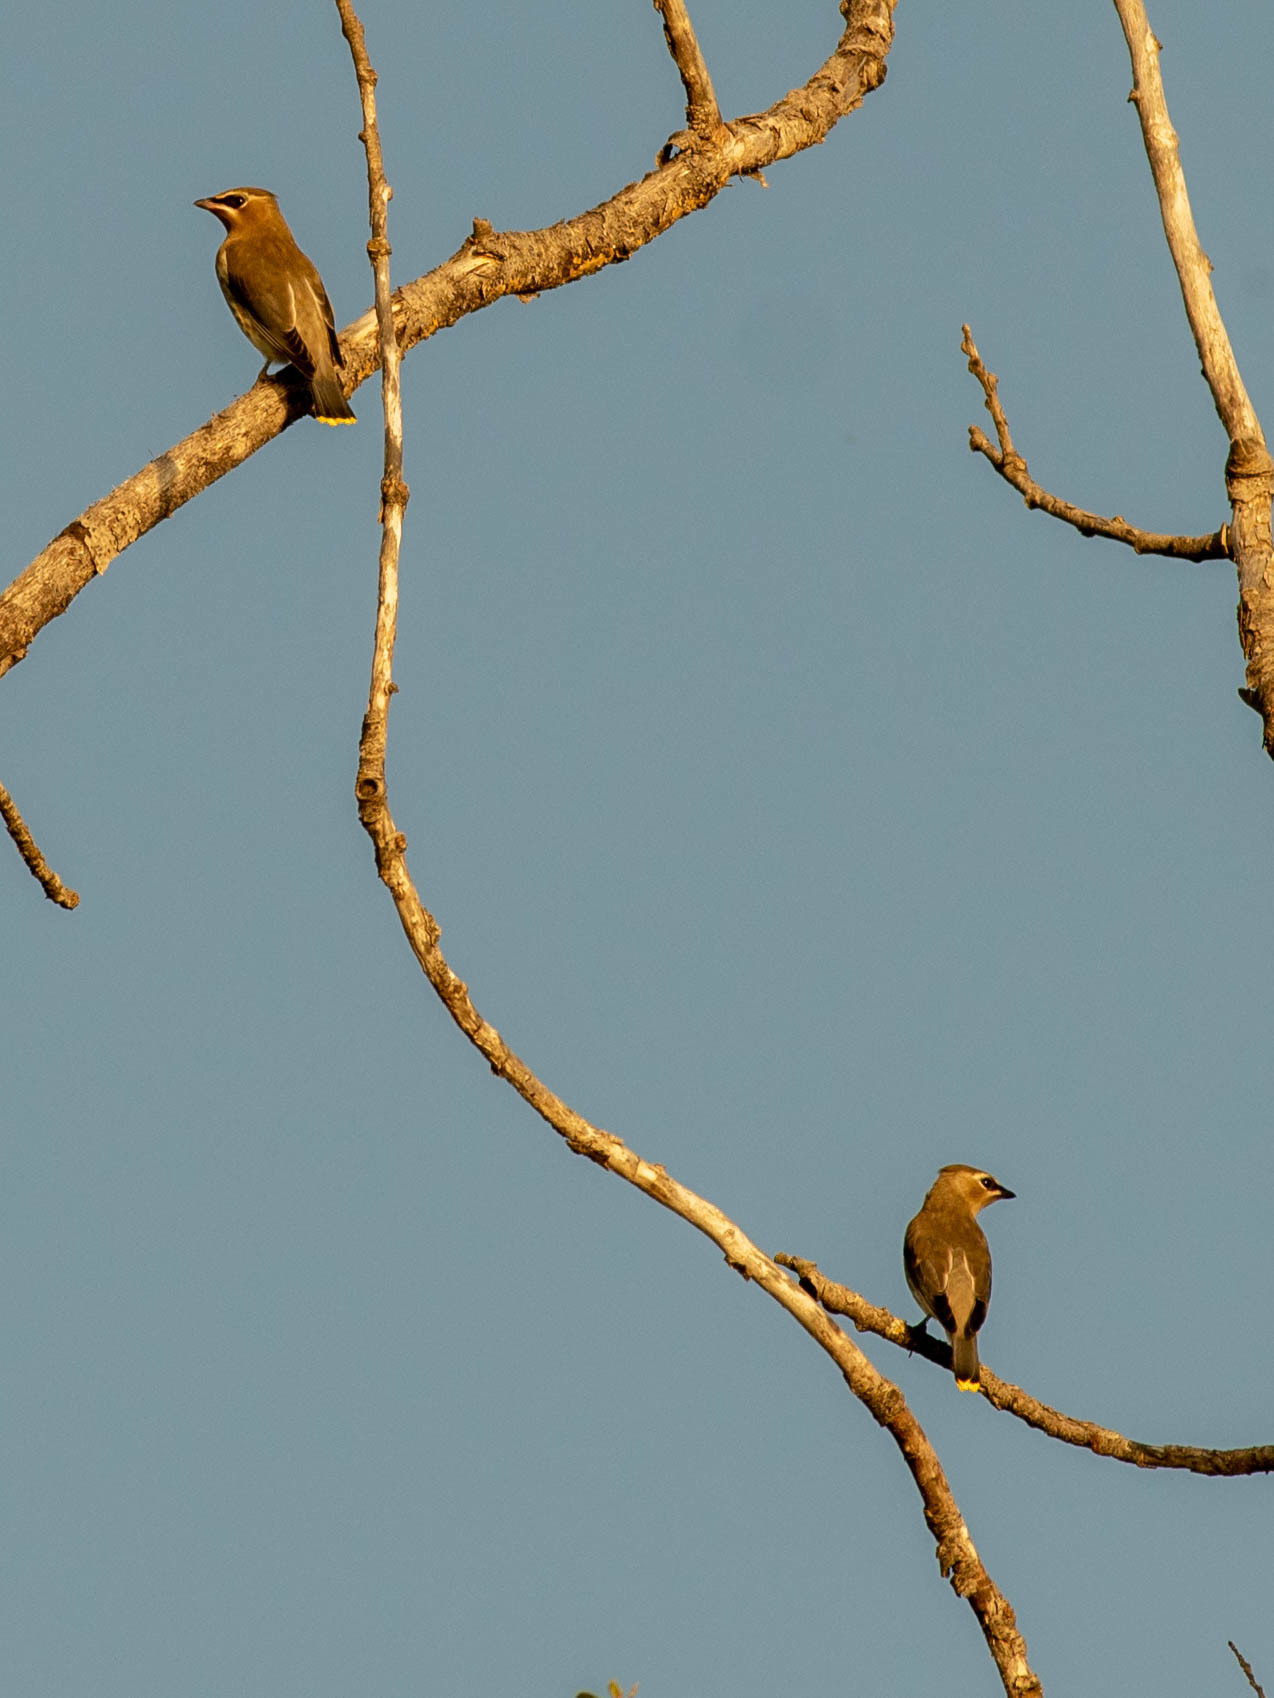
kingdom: Animalia
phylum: Chordata
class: Aves
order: Passeriformes
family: Bombycillidae
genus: Bombycilla
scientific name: Bombycilla cedrorum
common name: Cedar waxwing
